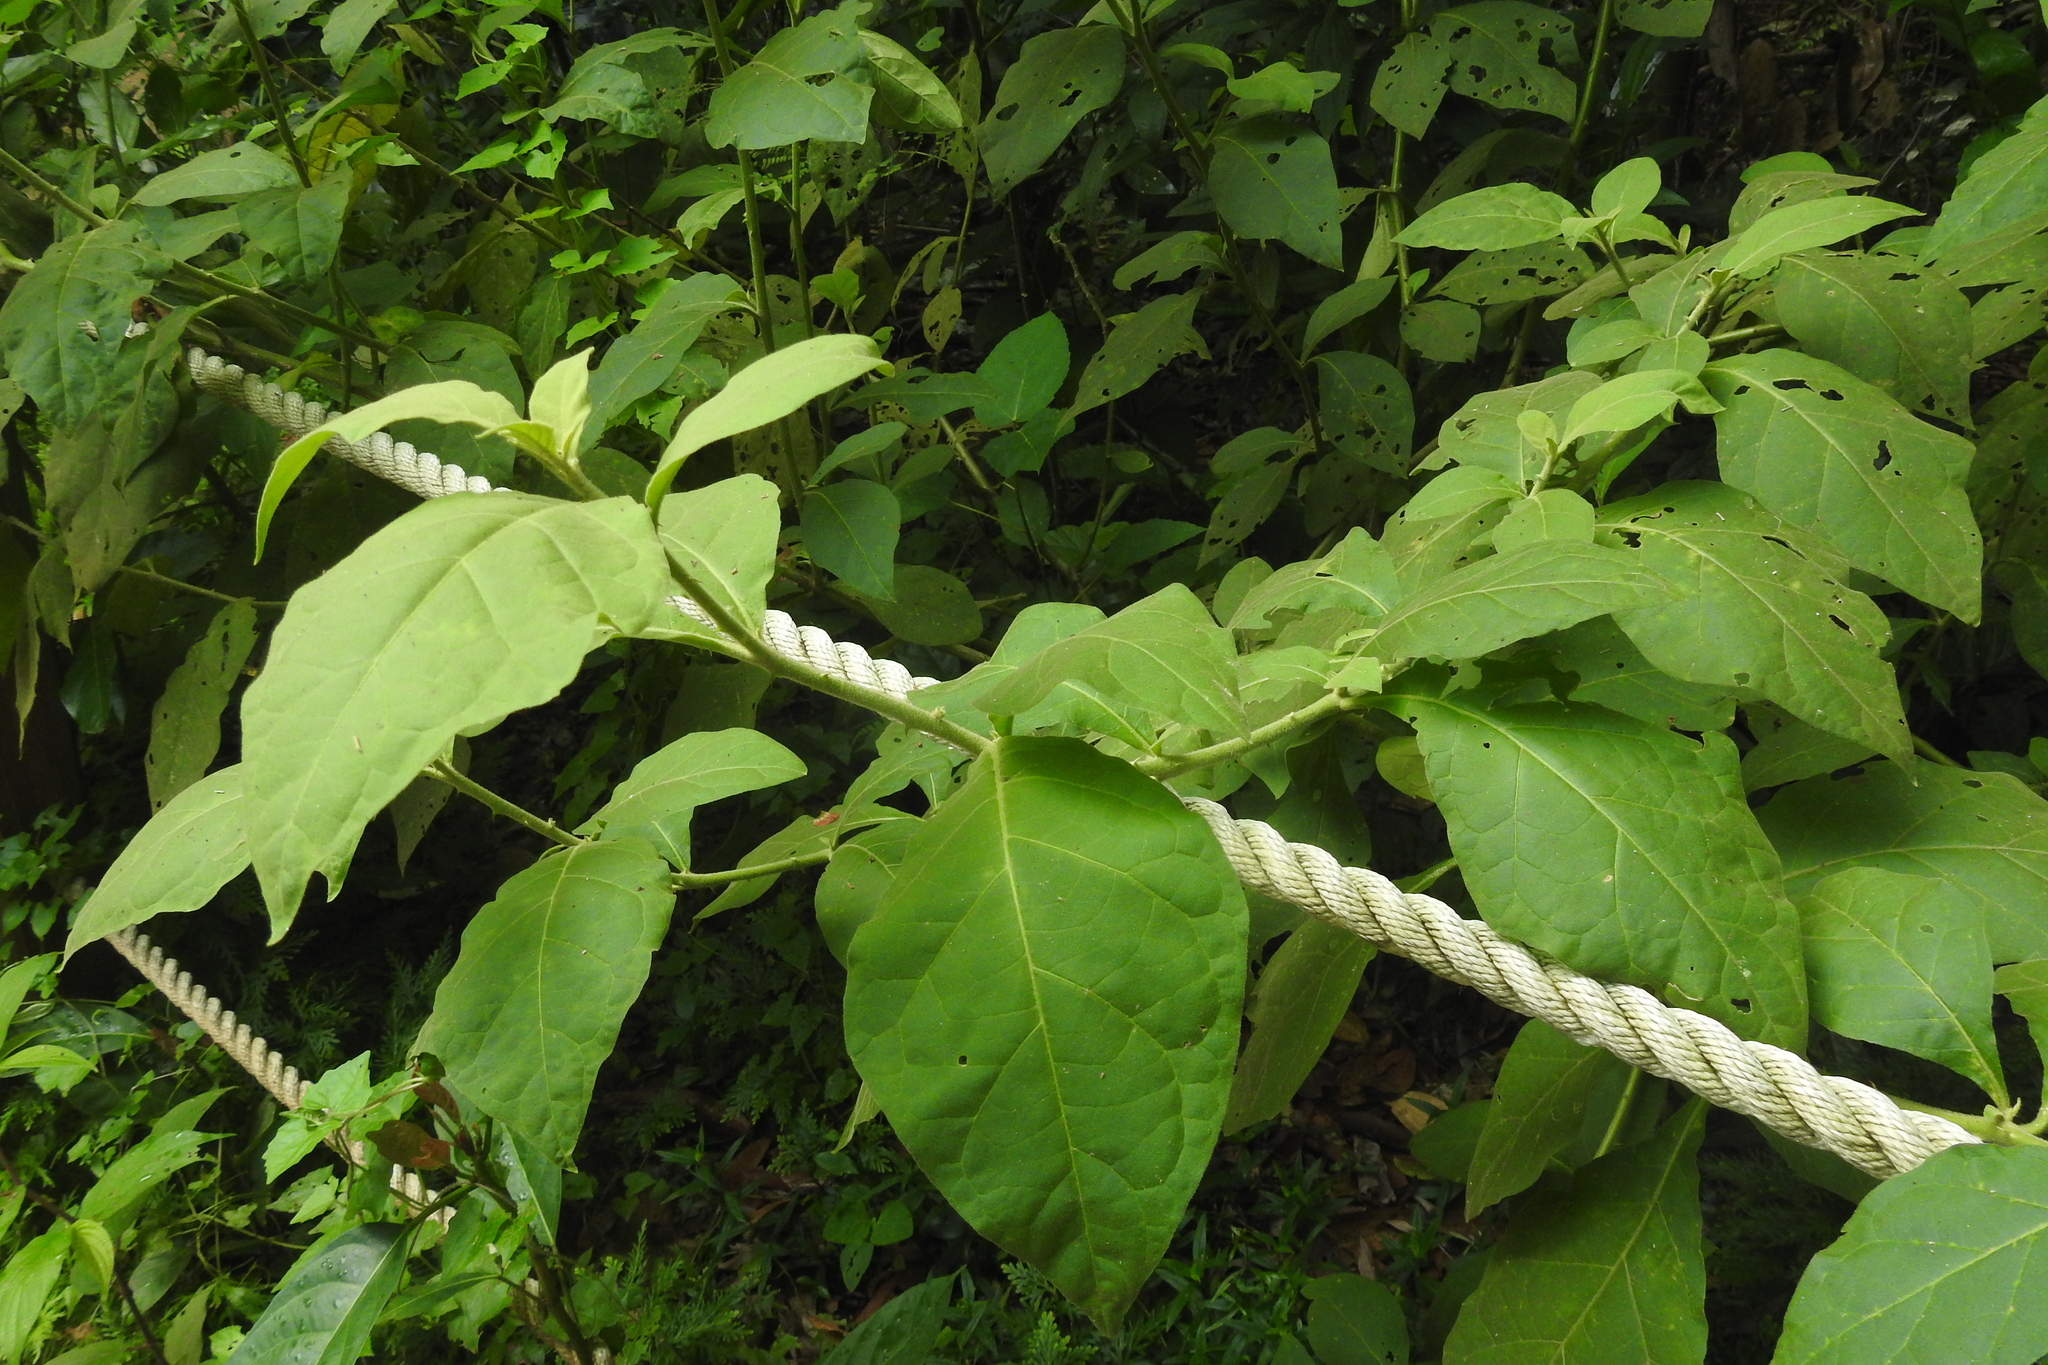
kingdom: Plantae
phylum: Tracheophyta
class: Magnoliopsida
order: Solanales
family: Solanaceae
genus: Solanum
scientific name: Solanum jamaicense
